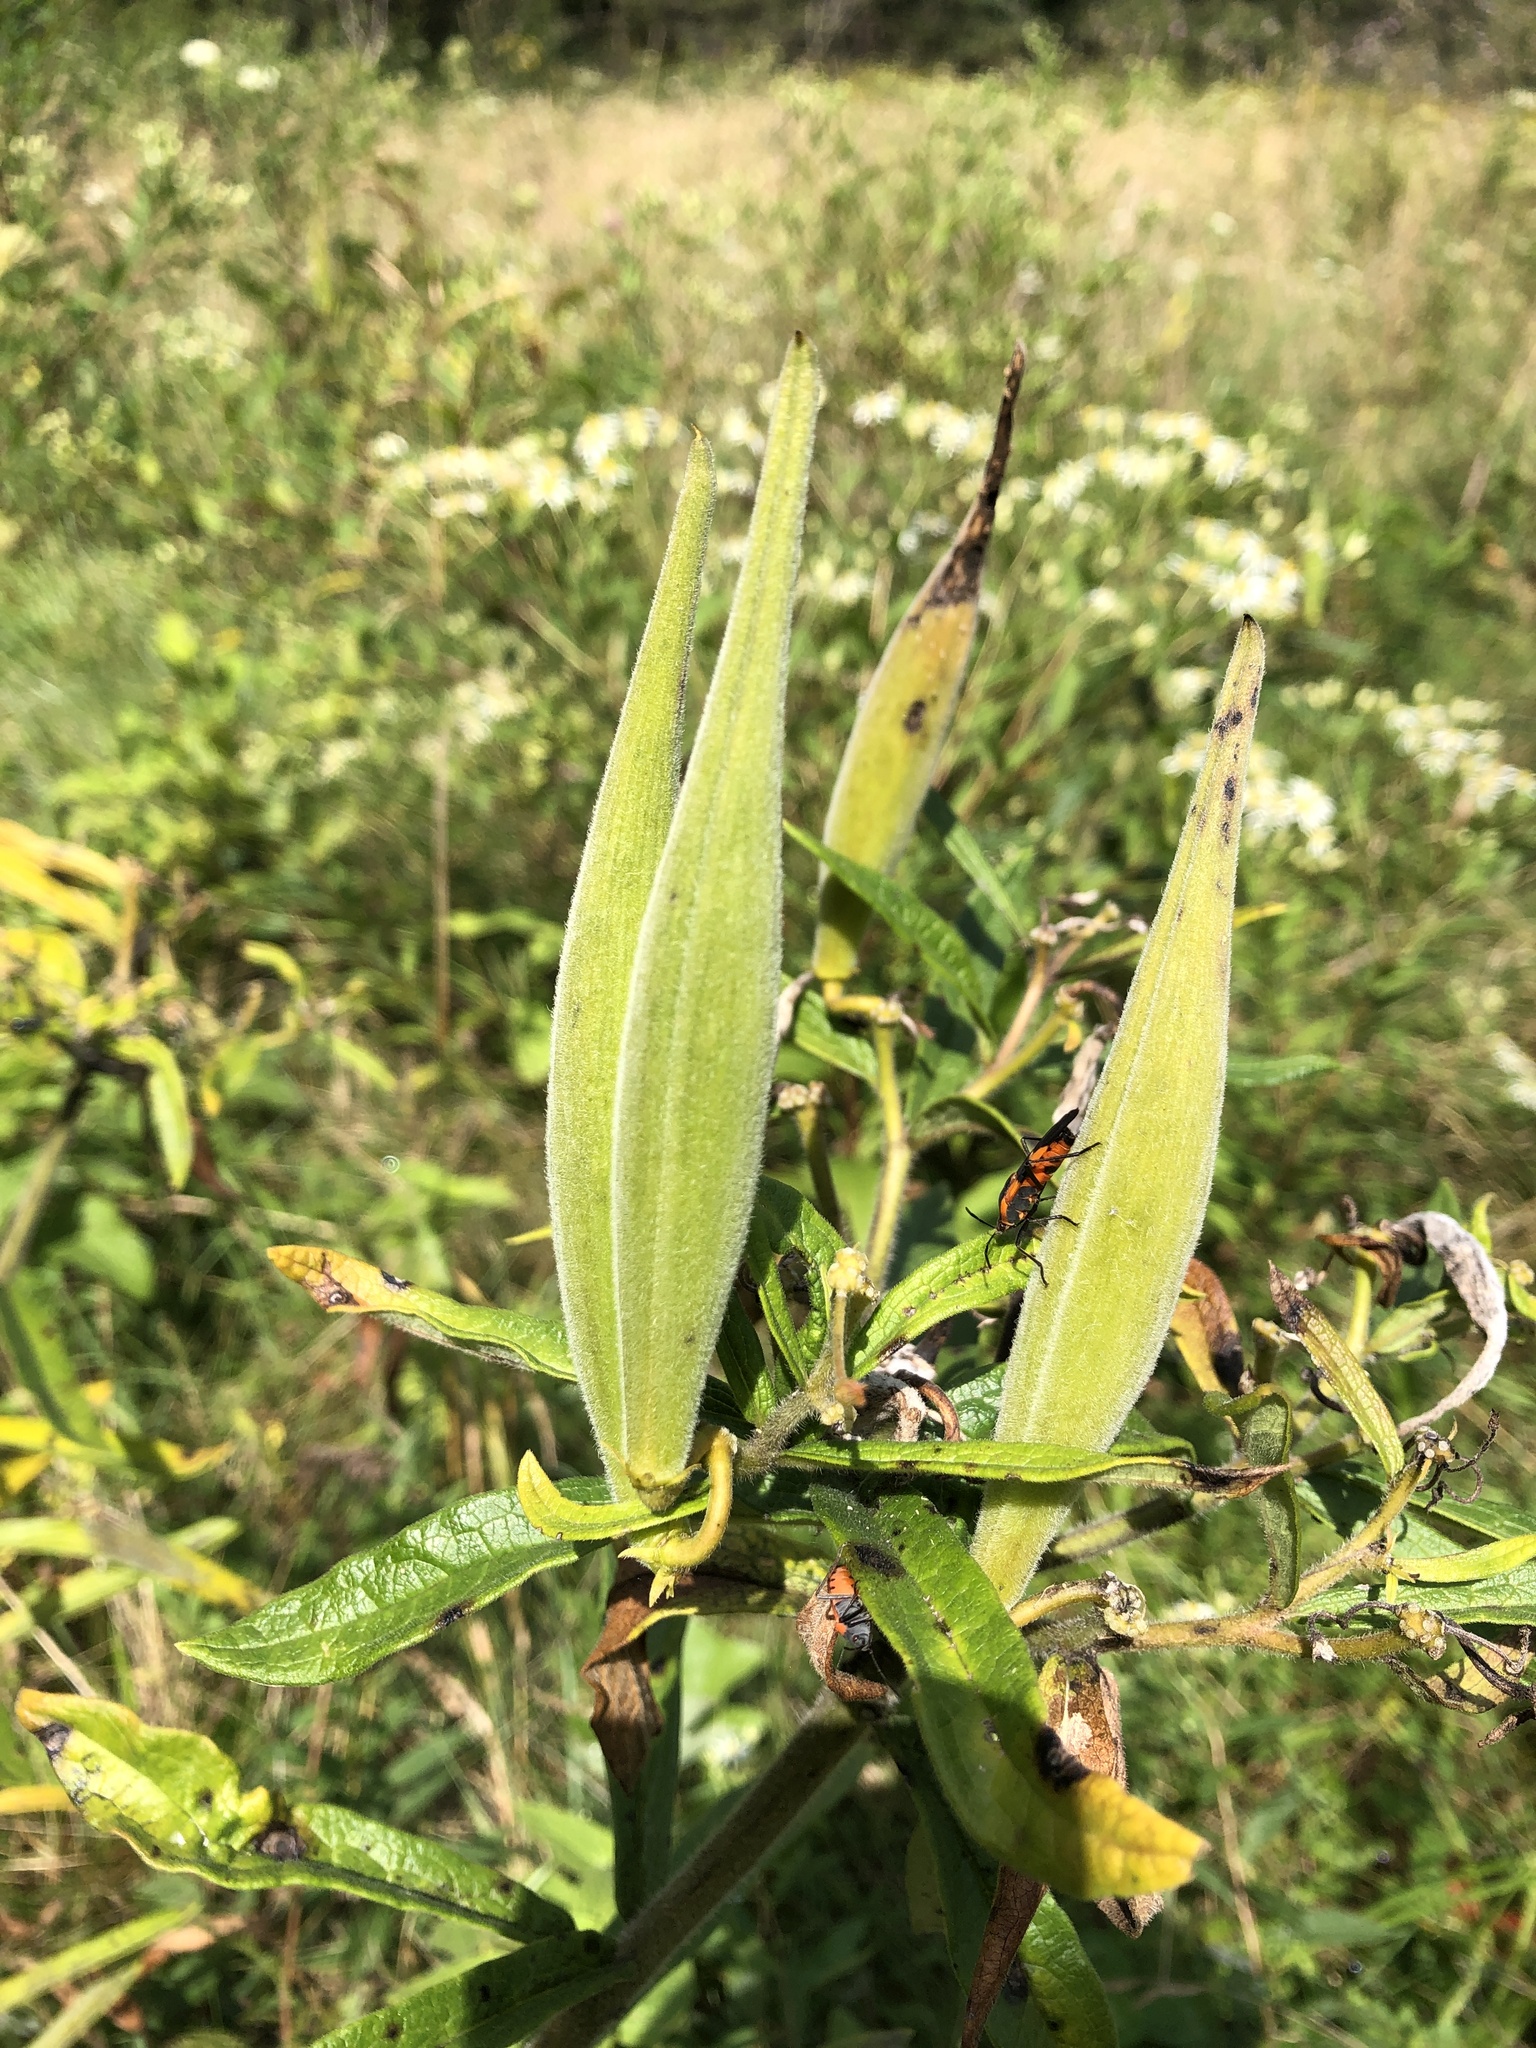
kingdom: Plantae
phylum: Tracheophyta
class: Magnoliopsida
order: Gentianales
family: Apocynaceae
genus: Asclepias
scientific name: Asclepias tuberosa
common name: Butterfly milkweed
